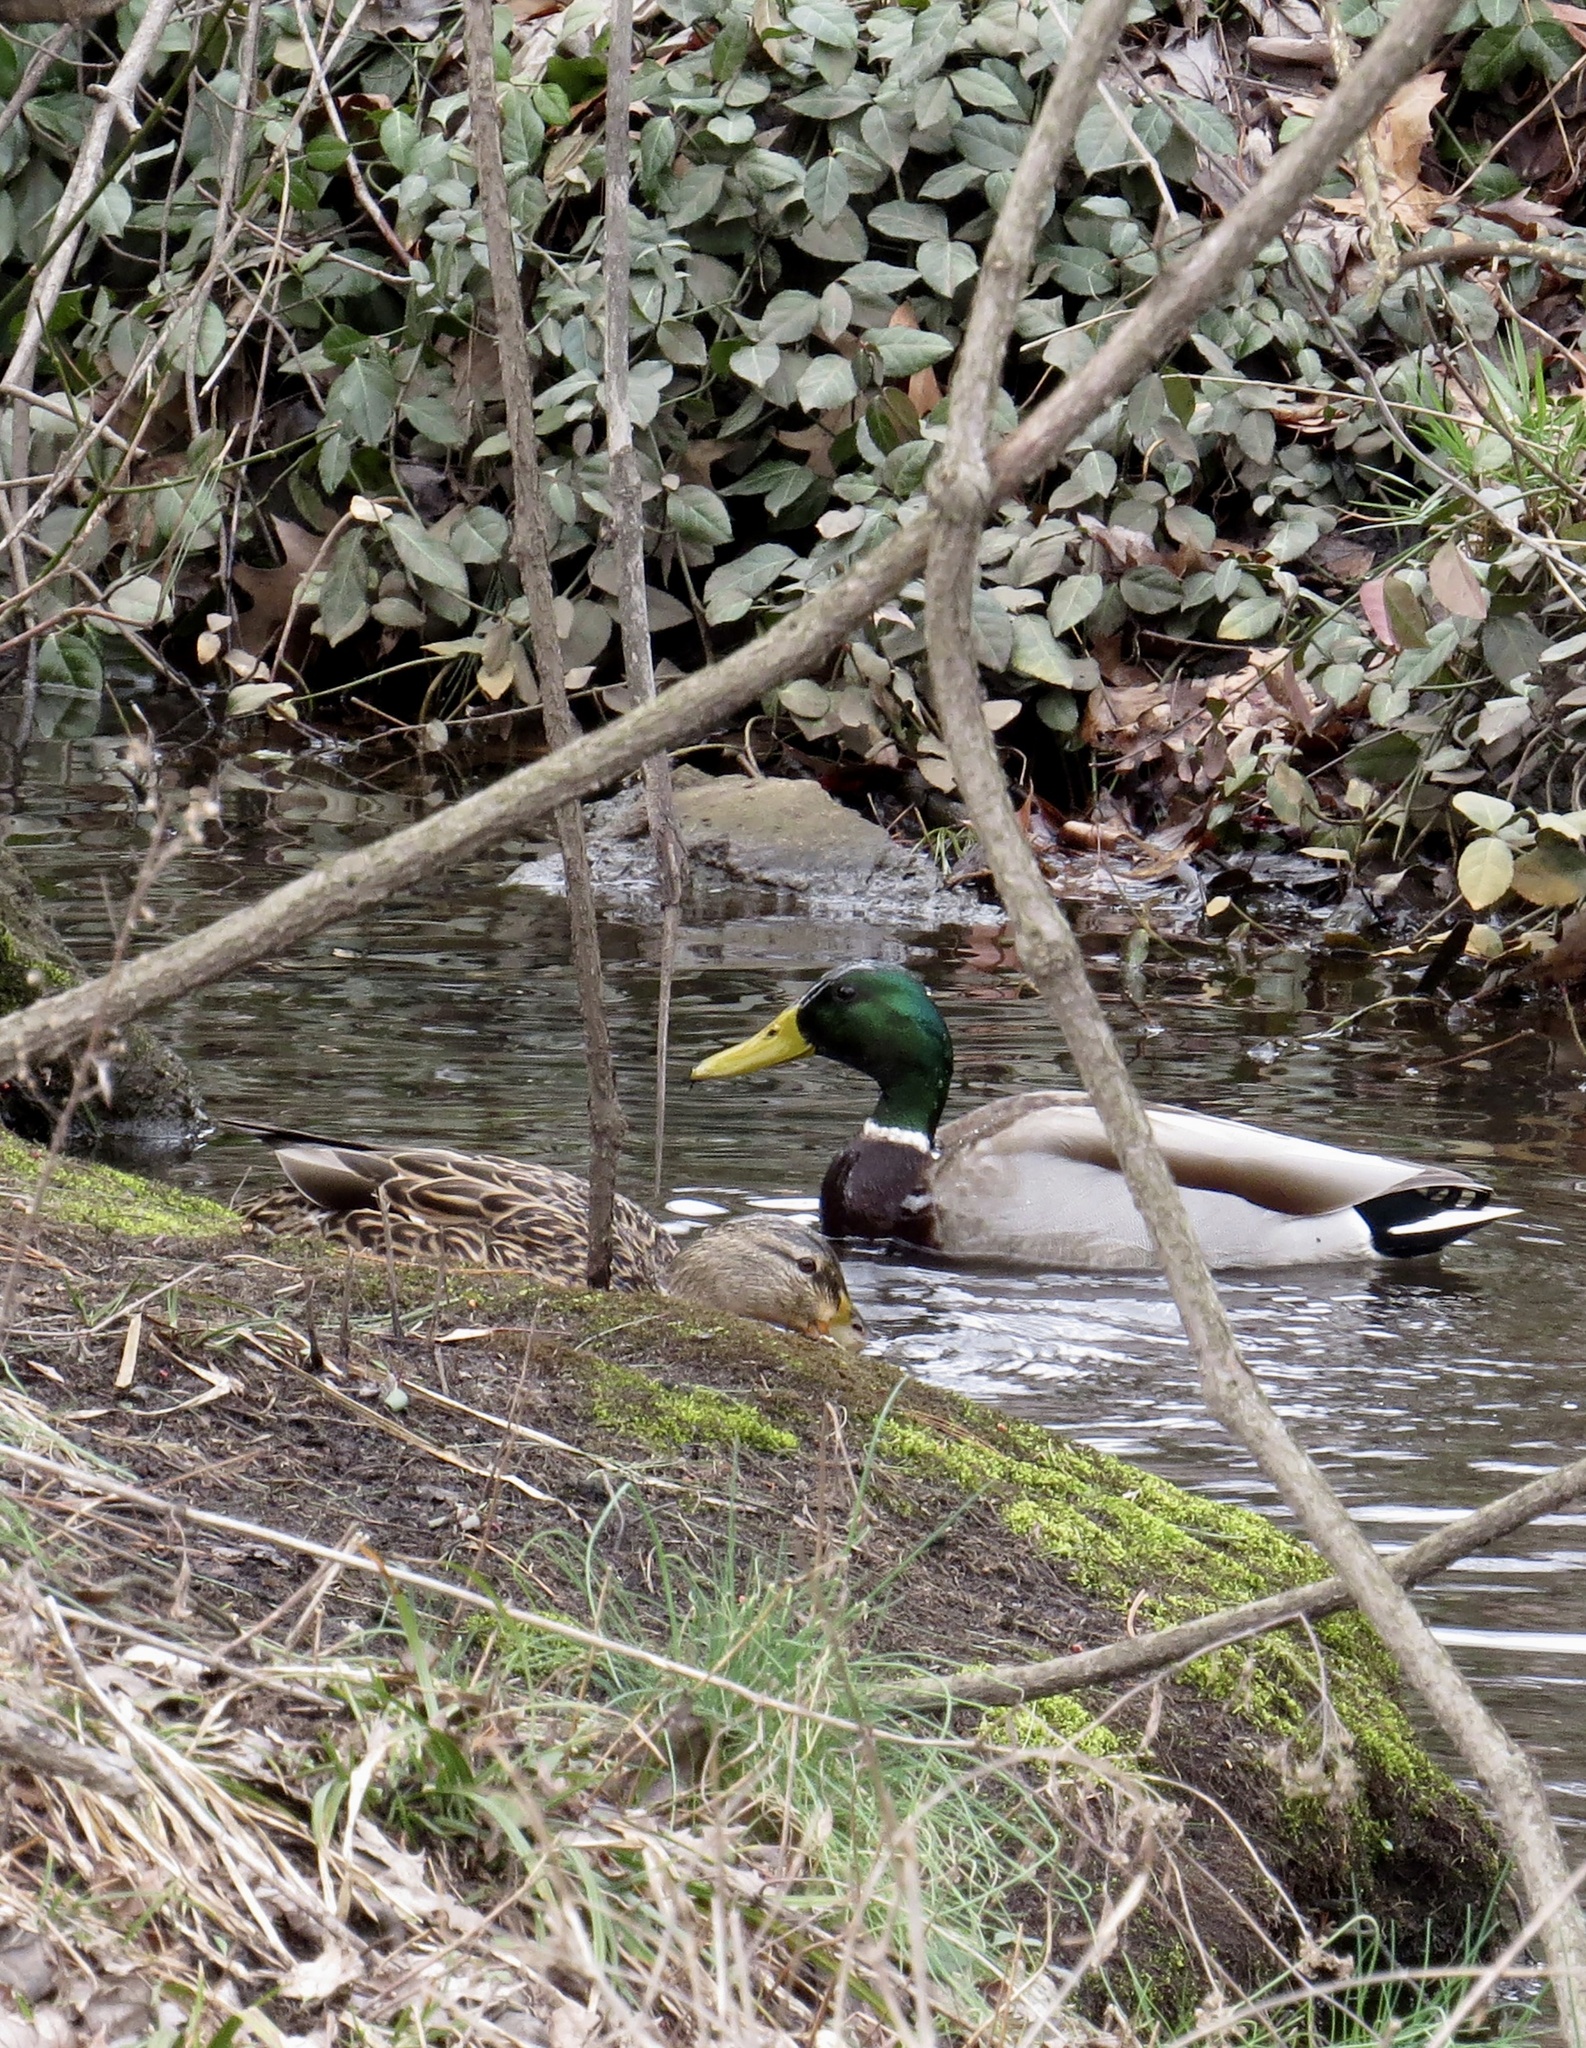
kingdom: Animalia
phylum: Chordata
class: Aves
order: Anseriformes
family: Anatidae
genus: Anas
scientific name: Anas platyrhynchos
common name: Mallard
